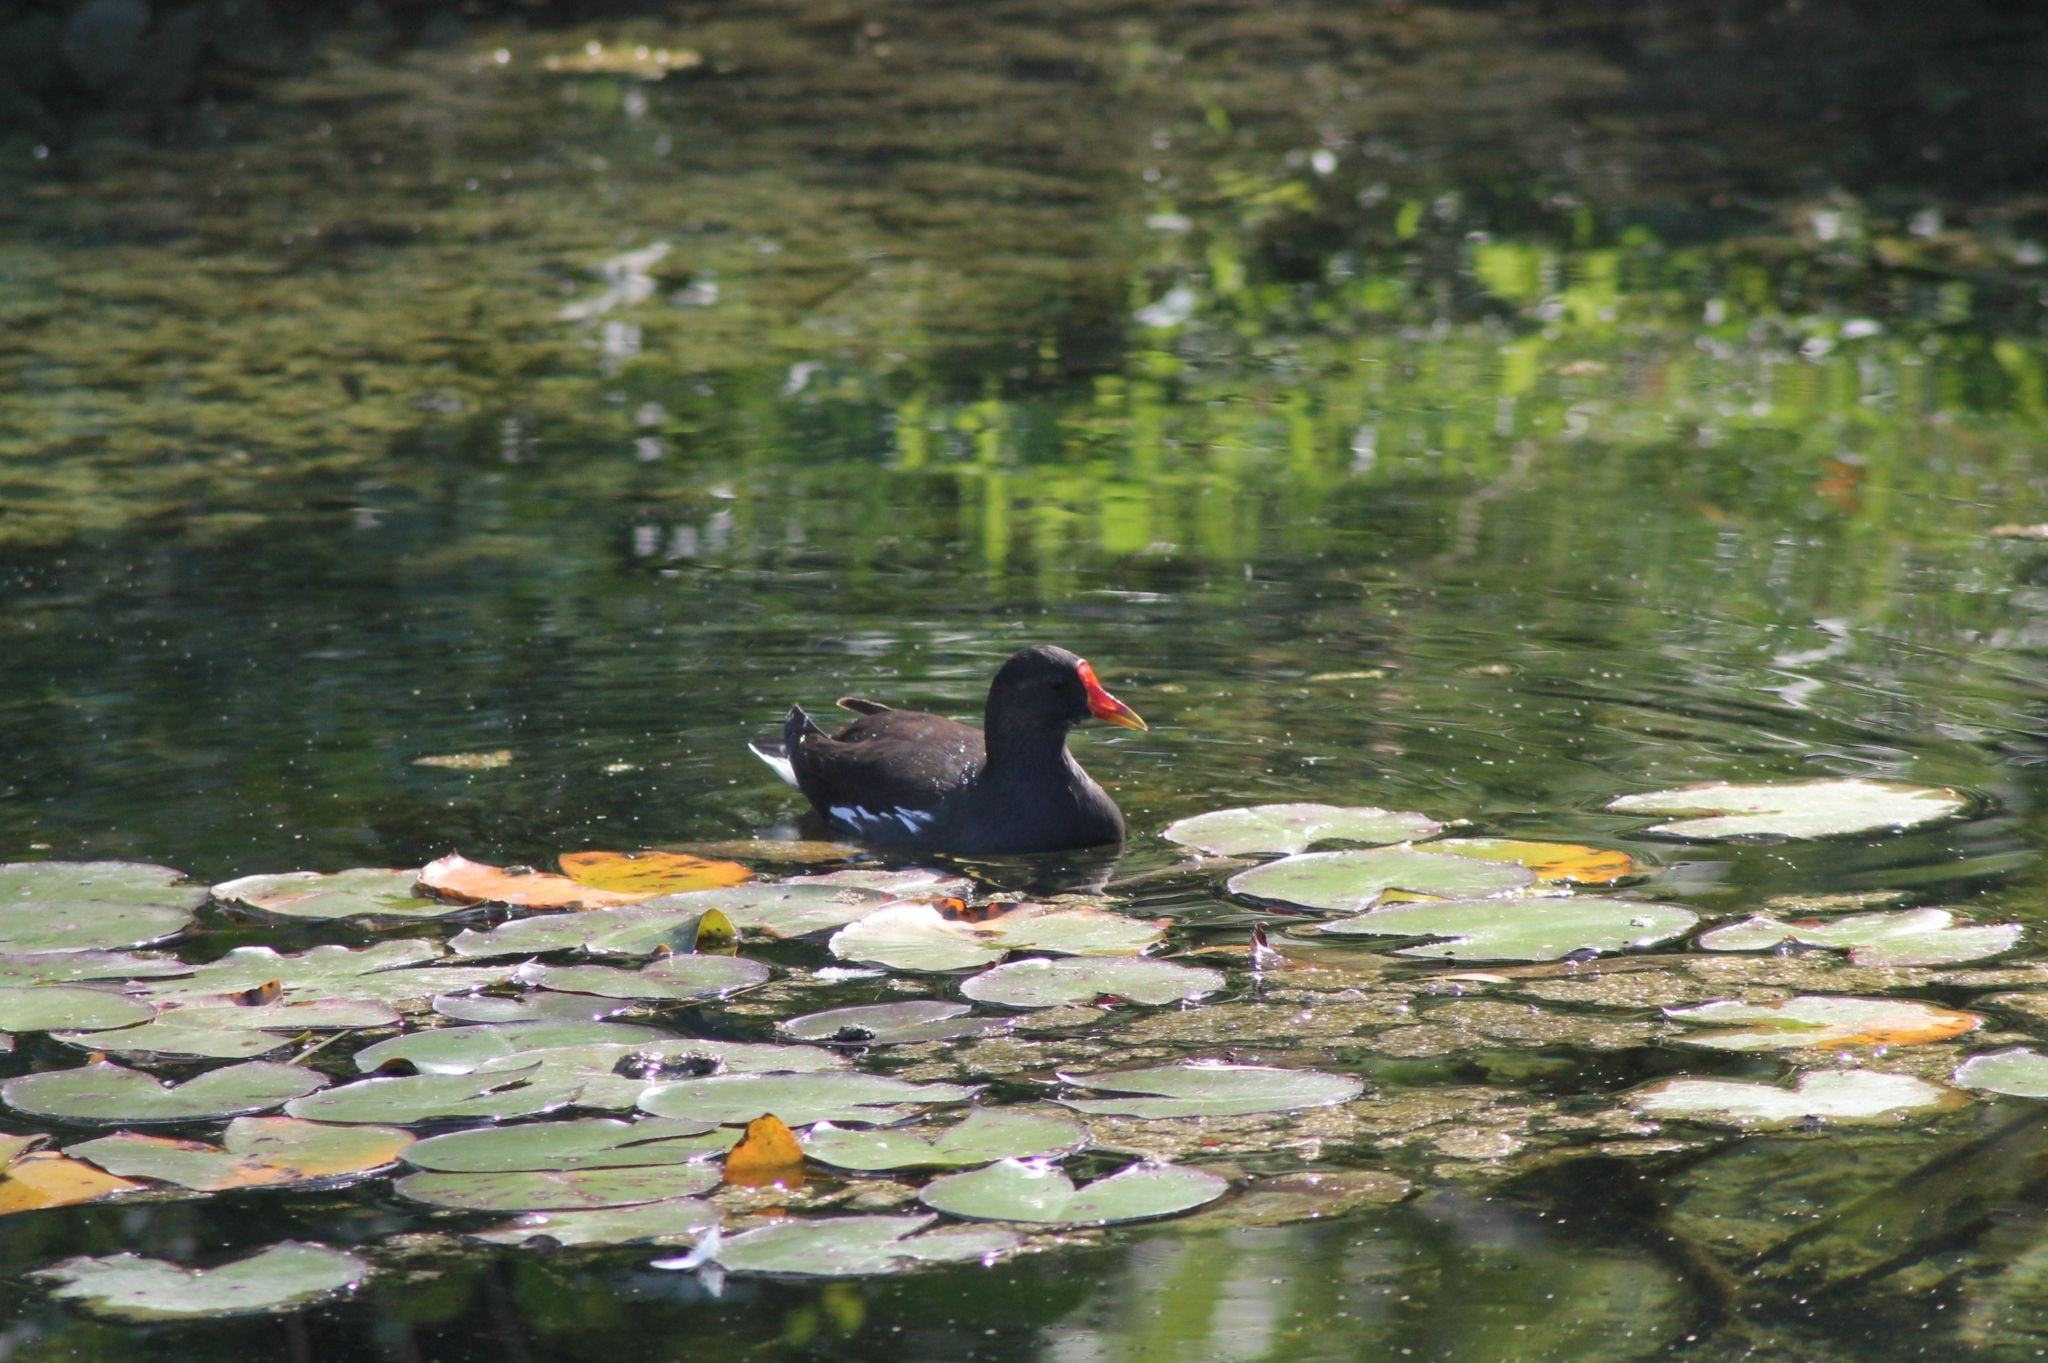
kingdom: Animalia
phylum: Chordata
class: Aves
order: Gruiformes
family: Rallidae
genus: Gallinula
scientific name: Gallinula chloropus
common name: Common moorhen
